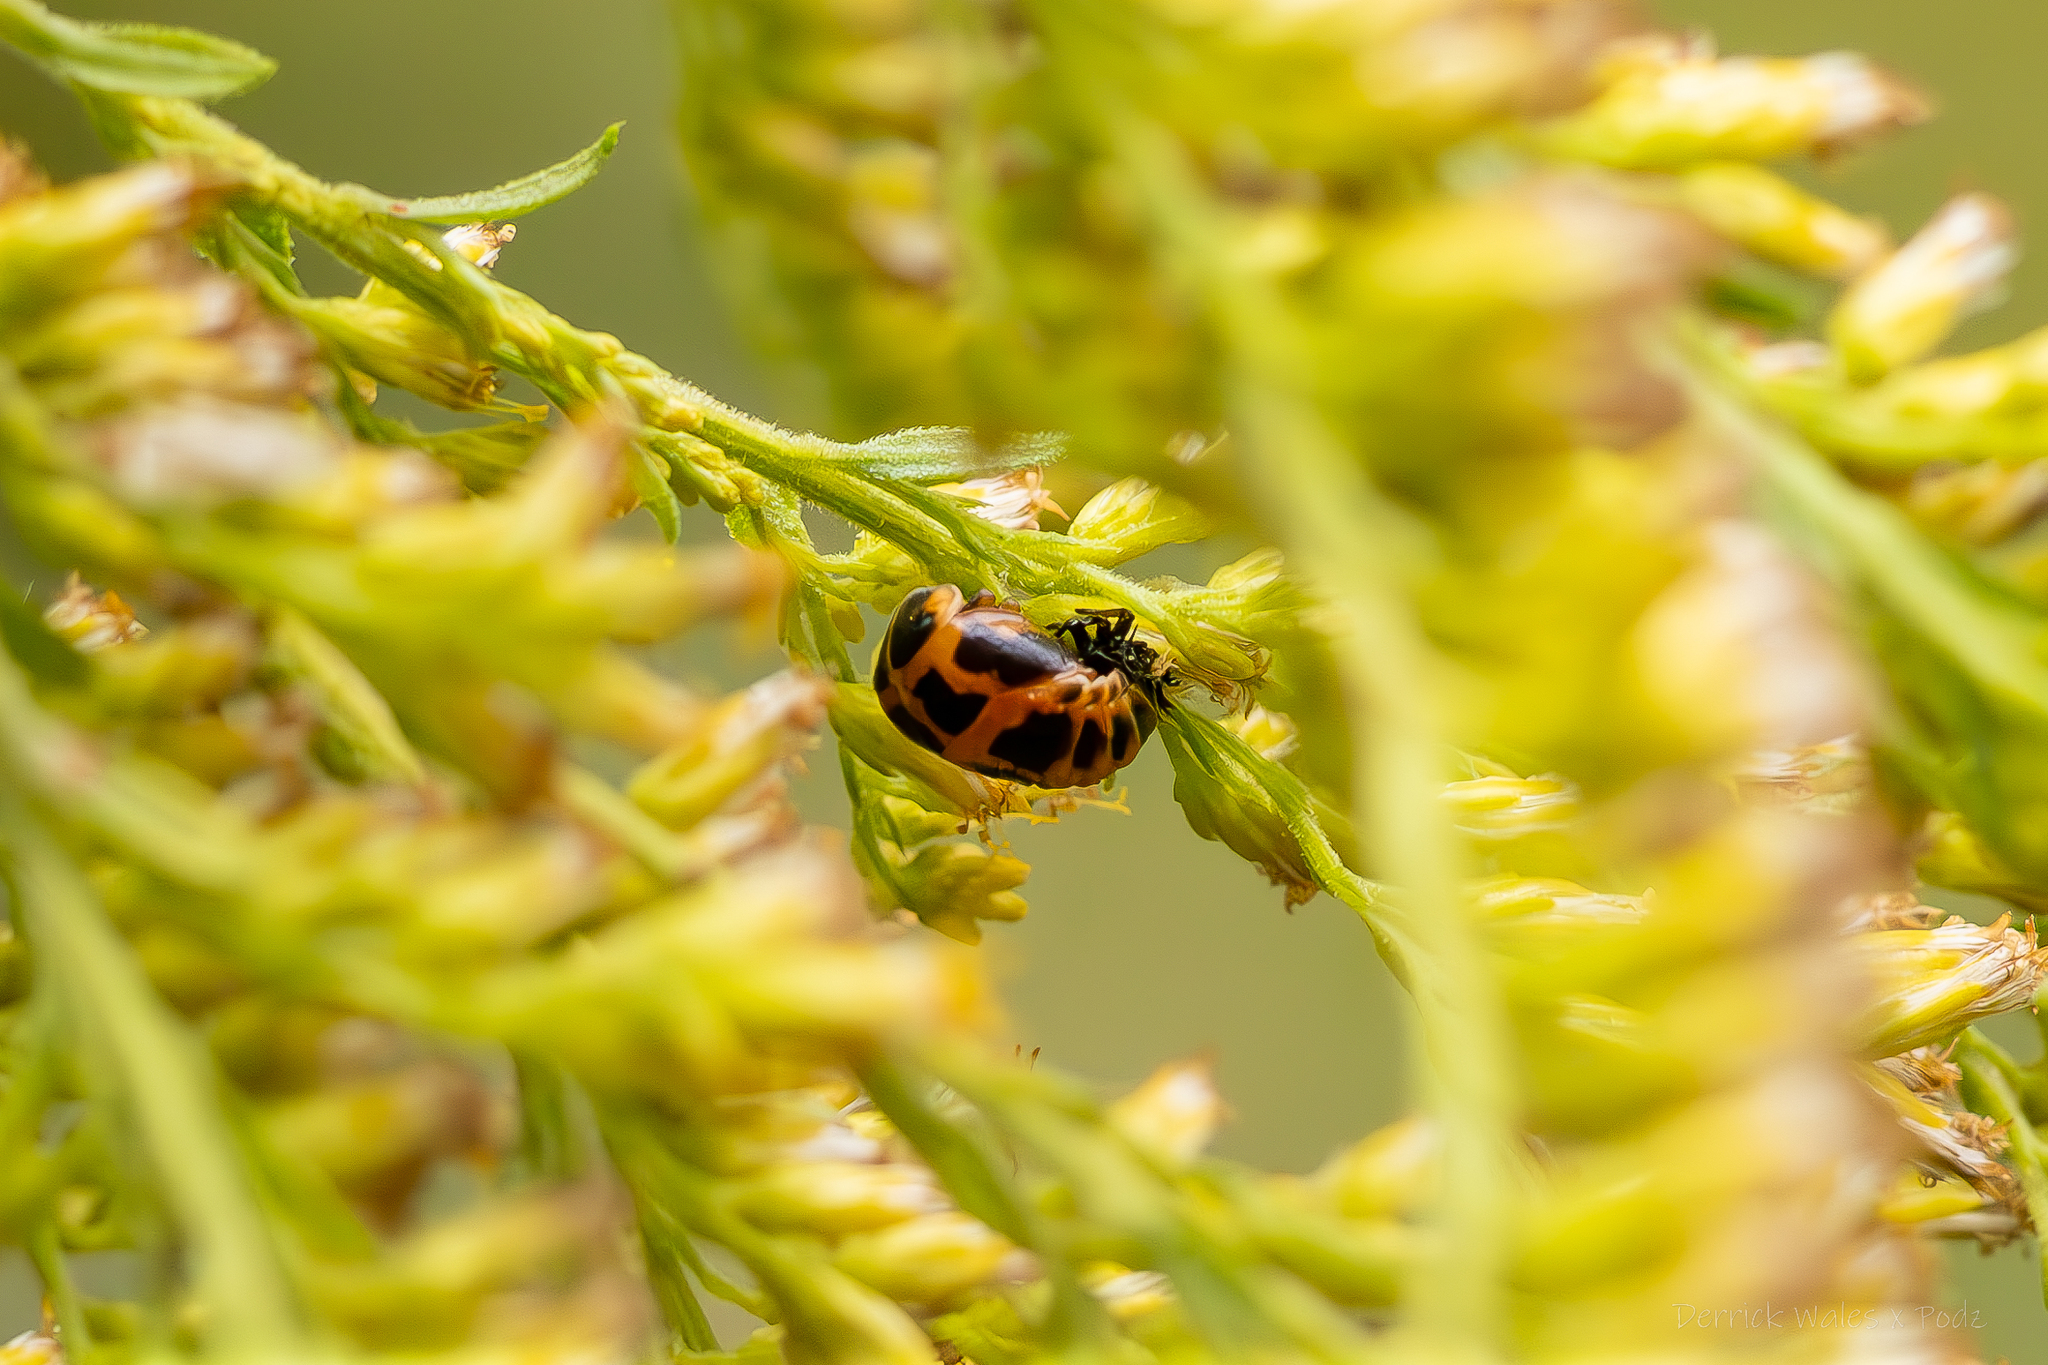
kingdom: Animalia
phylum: Arthropoda
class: Insecta
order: Coleoptera
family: Coccinellidae
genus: Harmonia
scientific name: Harmonia axyridis
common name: Harlequin ladybird
